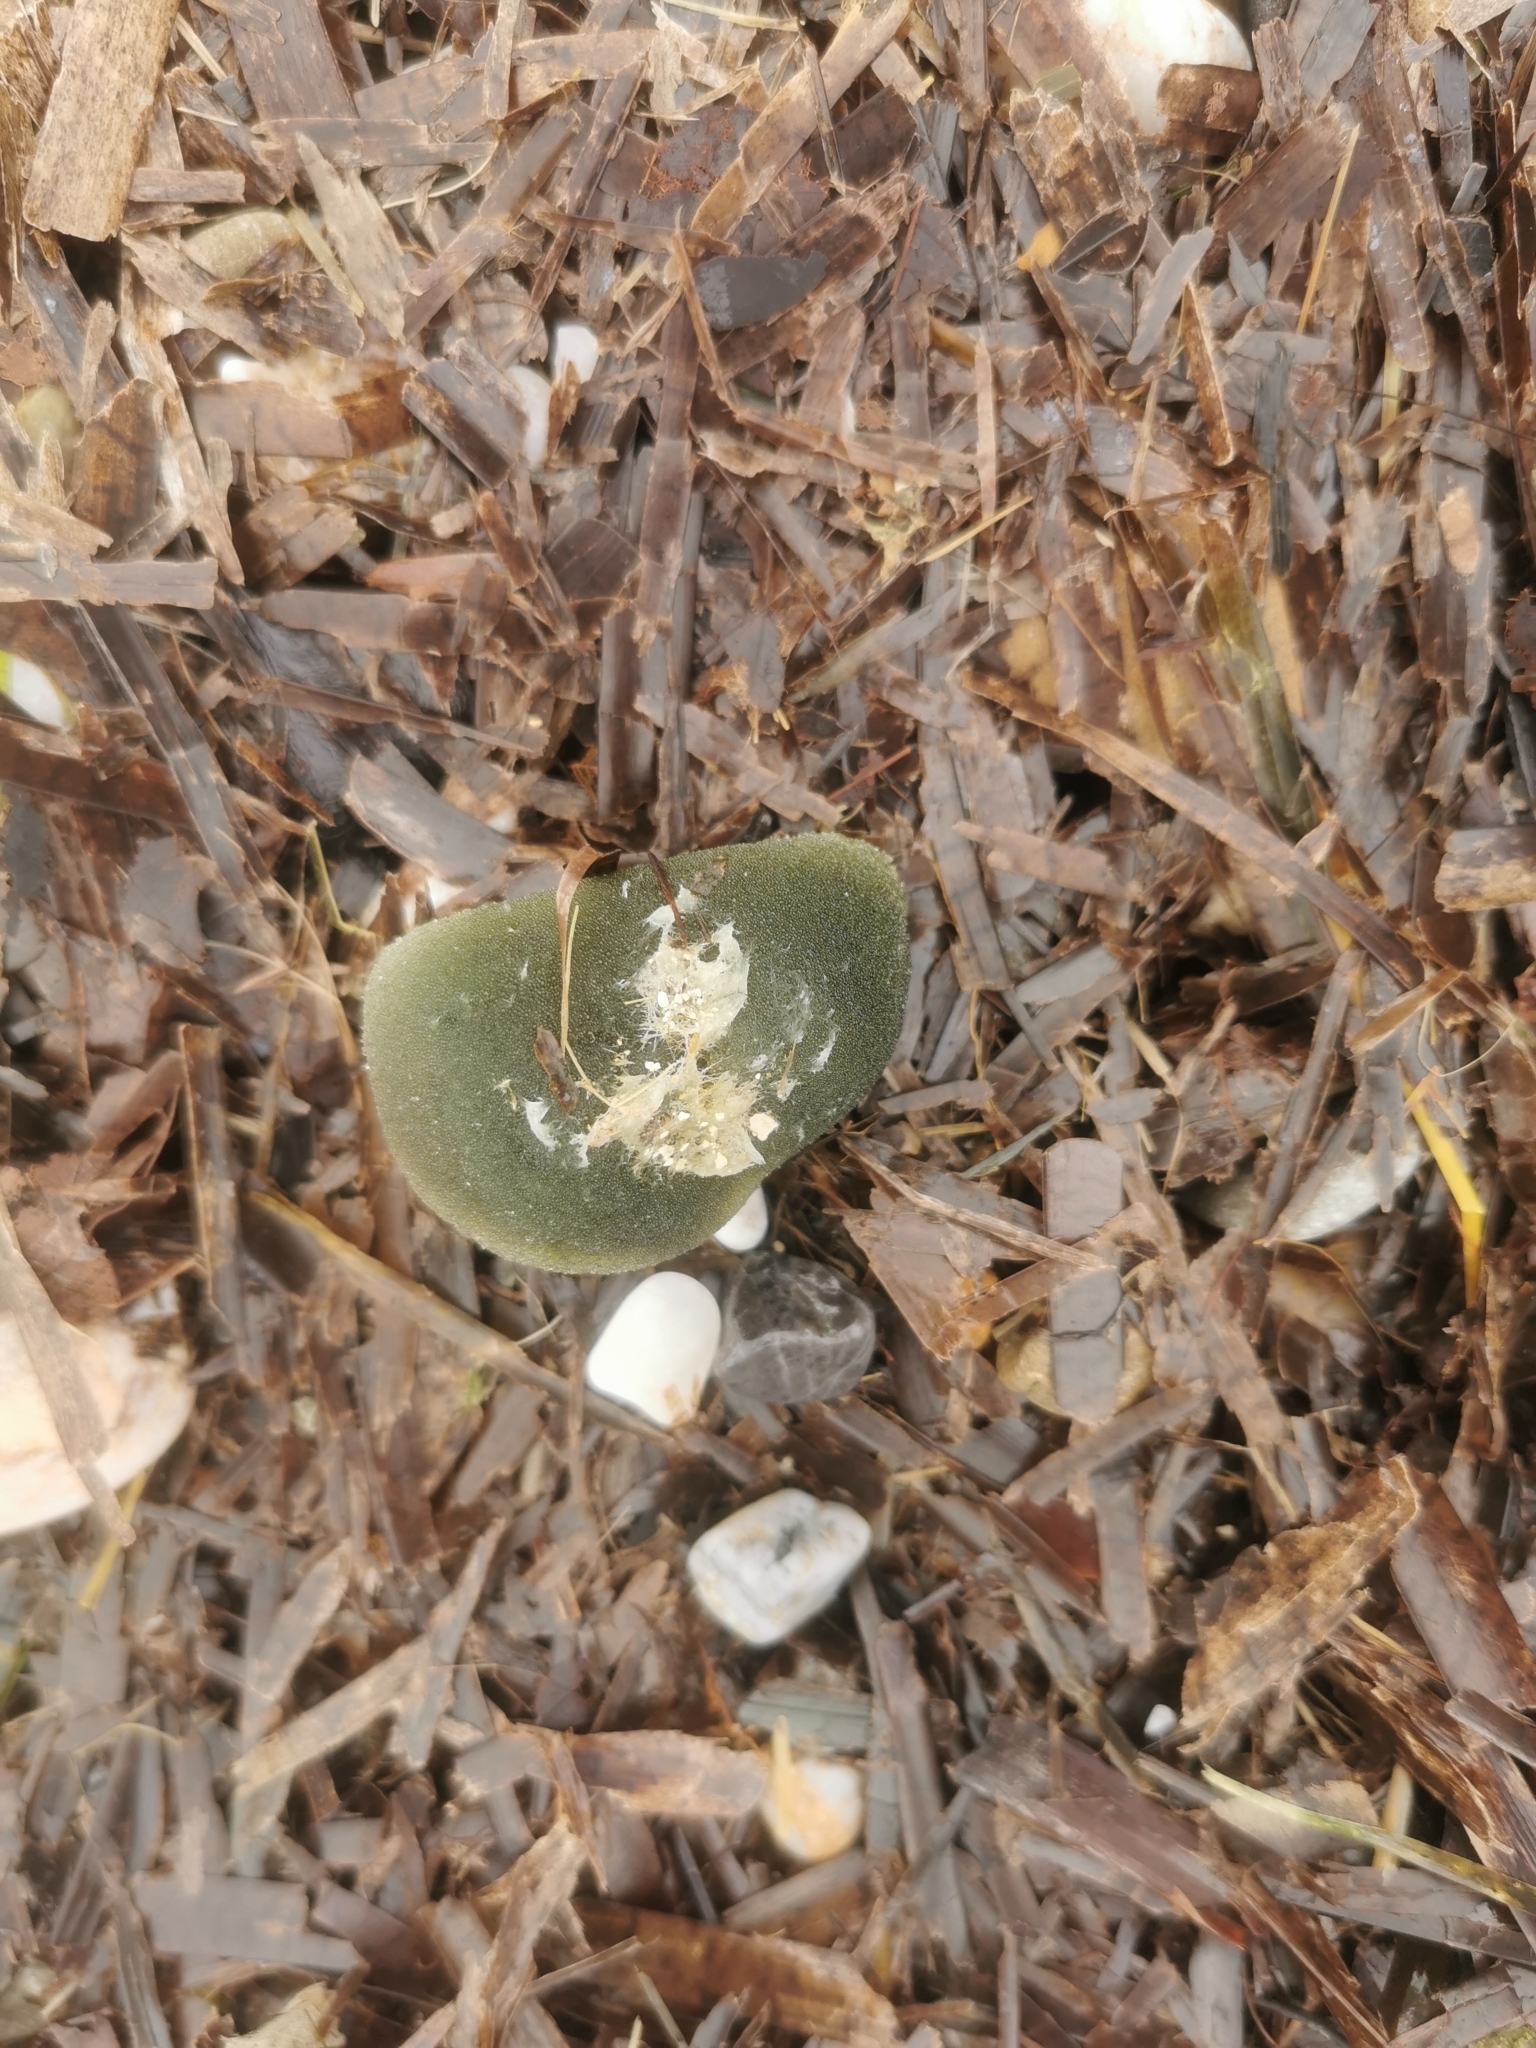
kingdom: Plantae
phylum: Chlorophyta
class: Ulvophyceae
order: Bryopsidales
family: Codiaceae
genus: Codium
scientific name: Codium bursa
